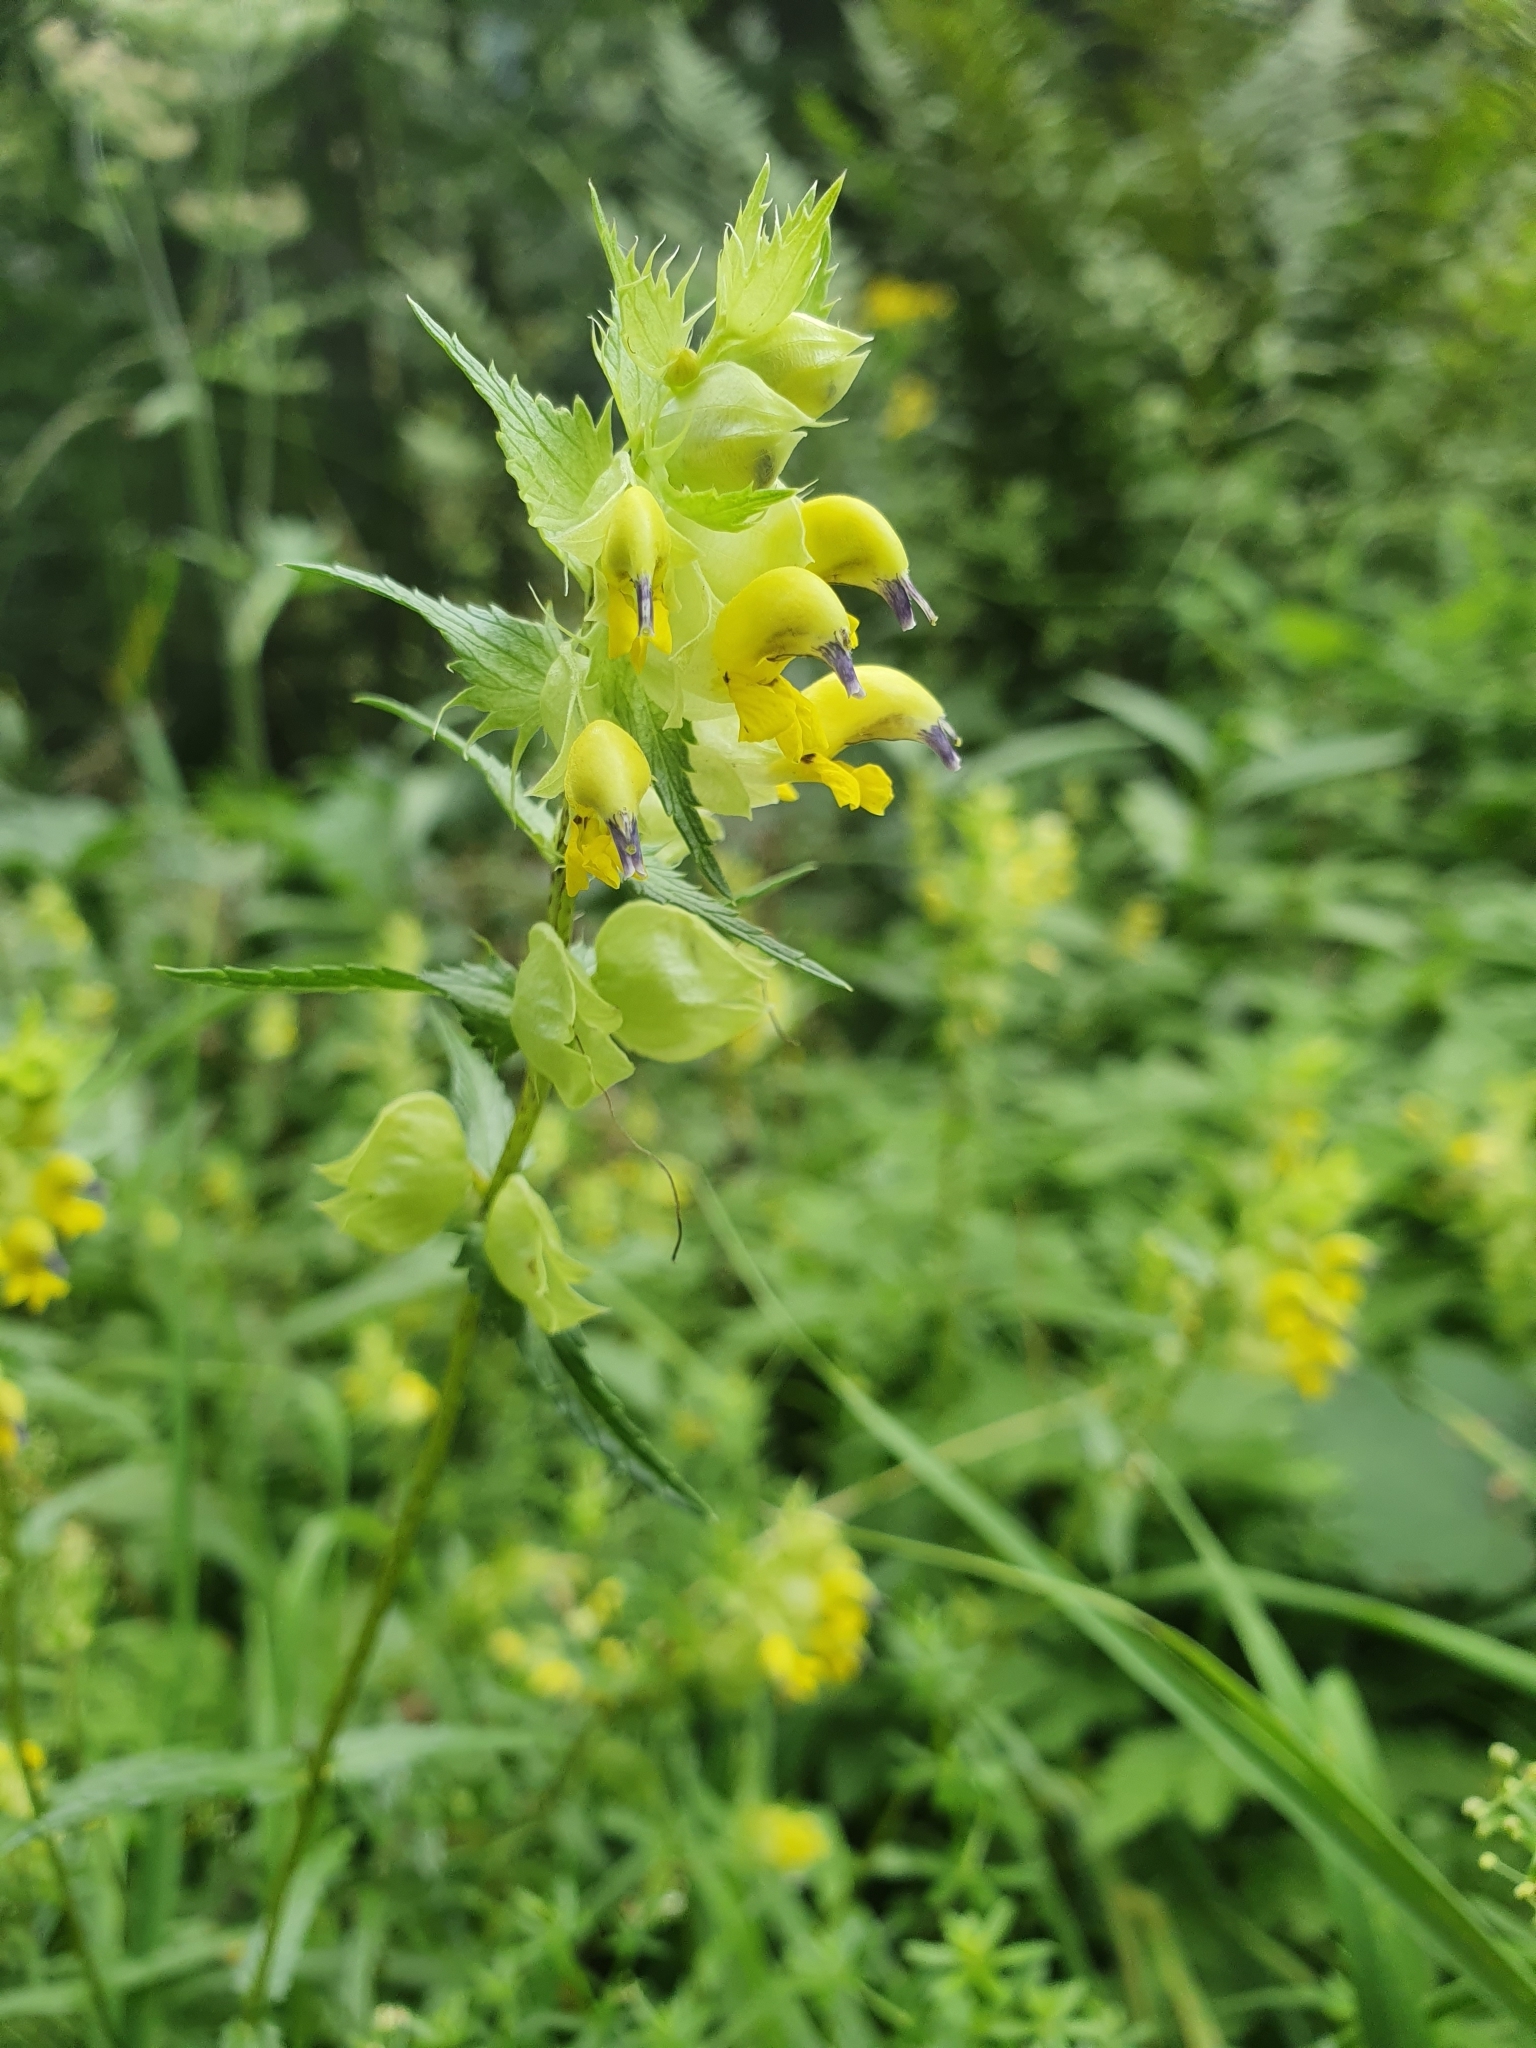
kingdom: Plantae
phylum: Tracheophyta
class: Magnoliopsida
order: Lamiales
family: Orobanchaceae
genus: Rhinanthus
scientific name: Rhinanthus glacialis
